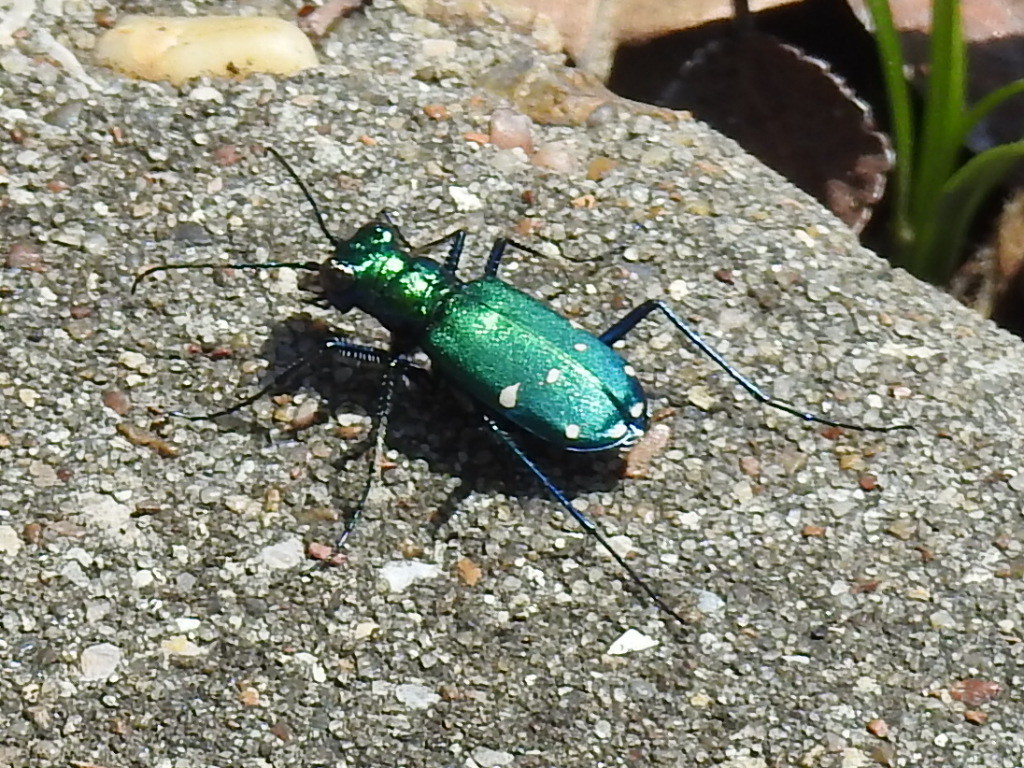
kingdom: Animalia
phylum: Arthropoda
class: Insecta
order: Coleoptera
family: Carabidae
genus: Cicindela
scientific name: Cicindela sexguttata
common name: Six-spotted tiger beetle
